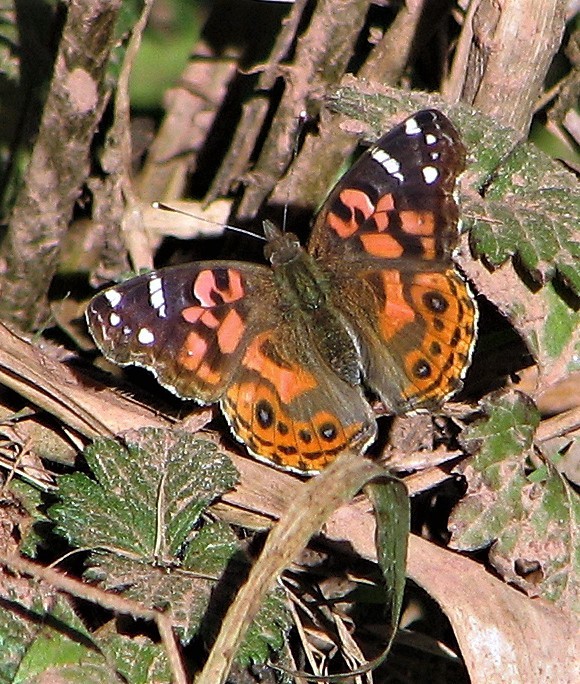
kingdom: Animalia
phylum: Arthropoda
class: Insecta
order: Lepidoptera
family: Nymphalidae
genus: Vanessa
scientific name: Vanessa braziliensis
